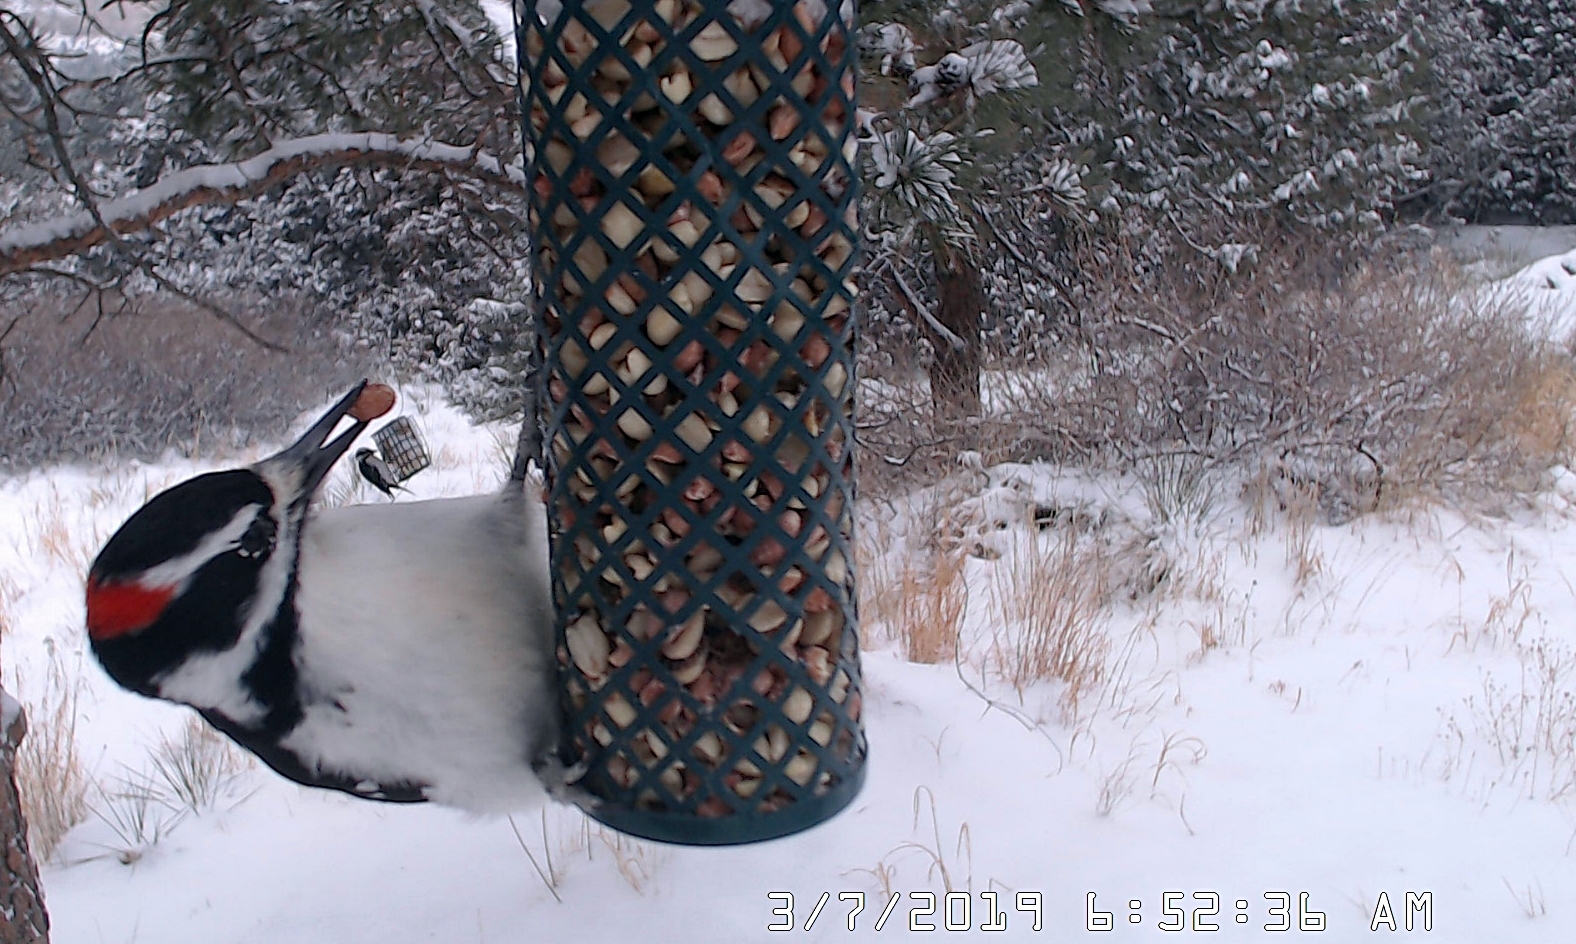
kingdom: Animalia
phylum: Chordata
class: Aves
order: Piciformes
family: Picidae
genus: Leuconotopicus
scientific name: Leuconotopicus villosus
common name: Hairy woodpecker
